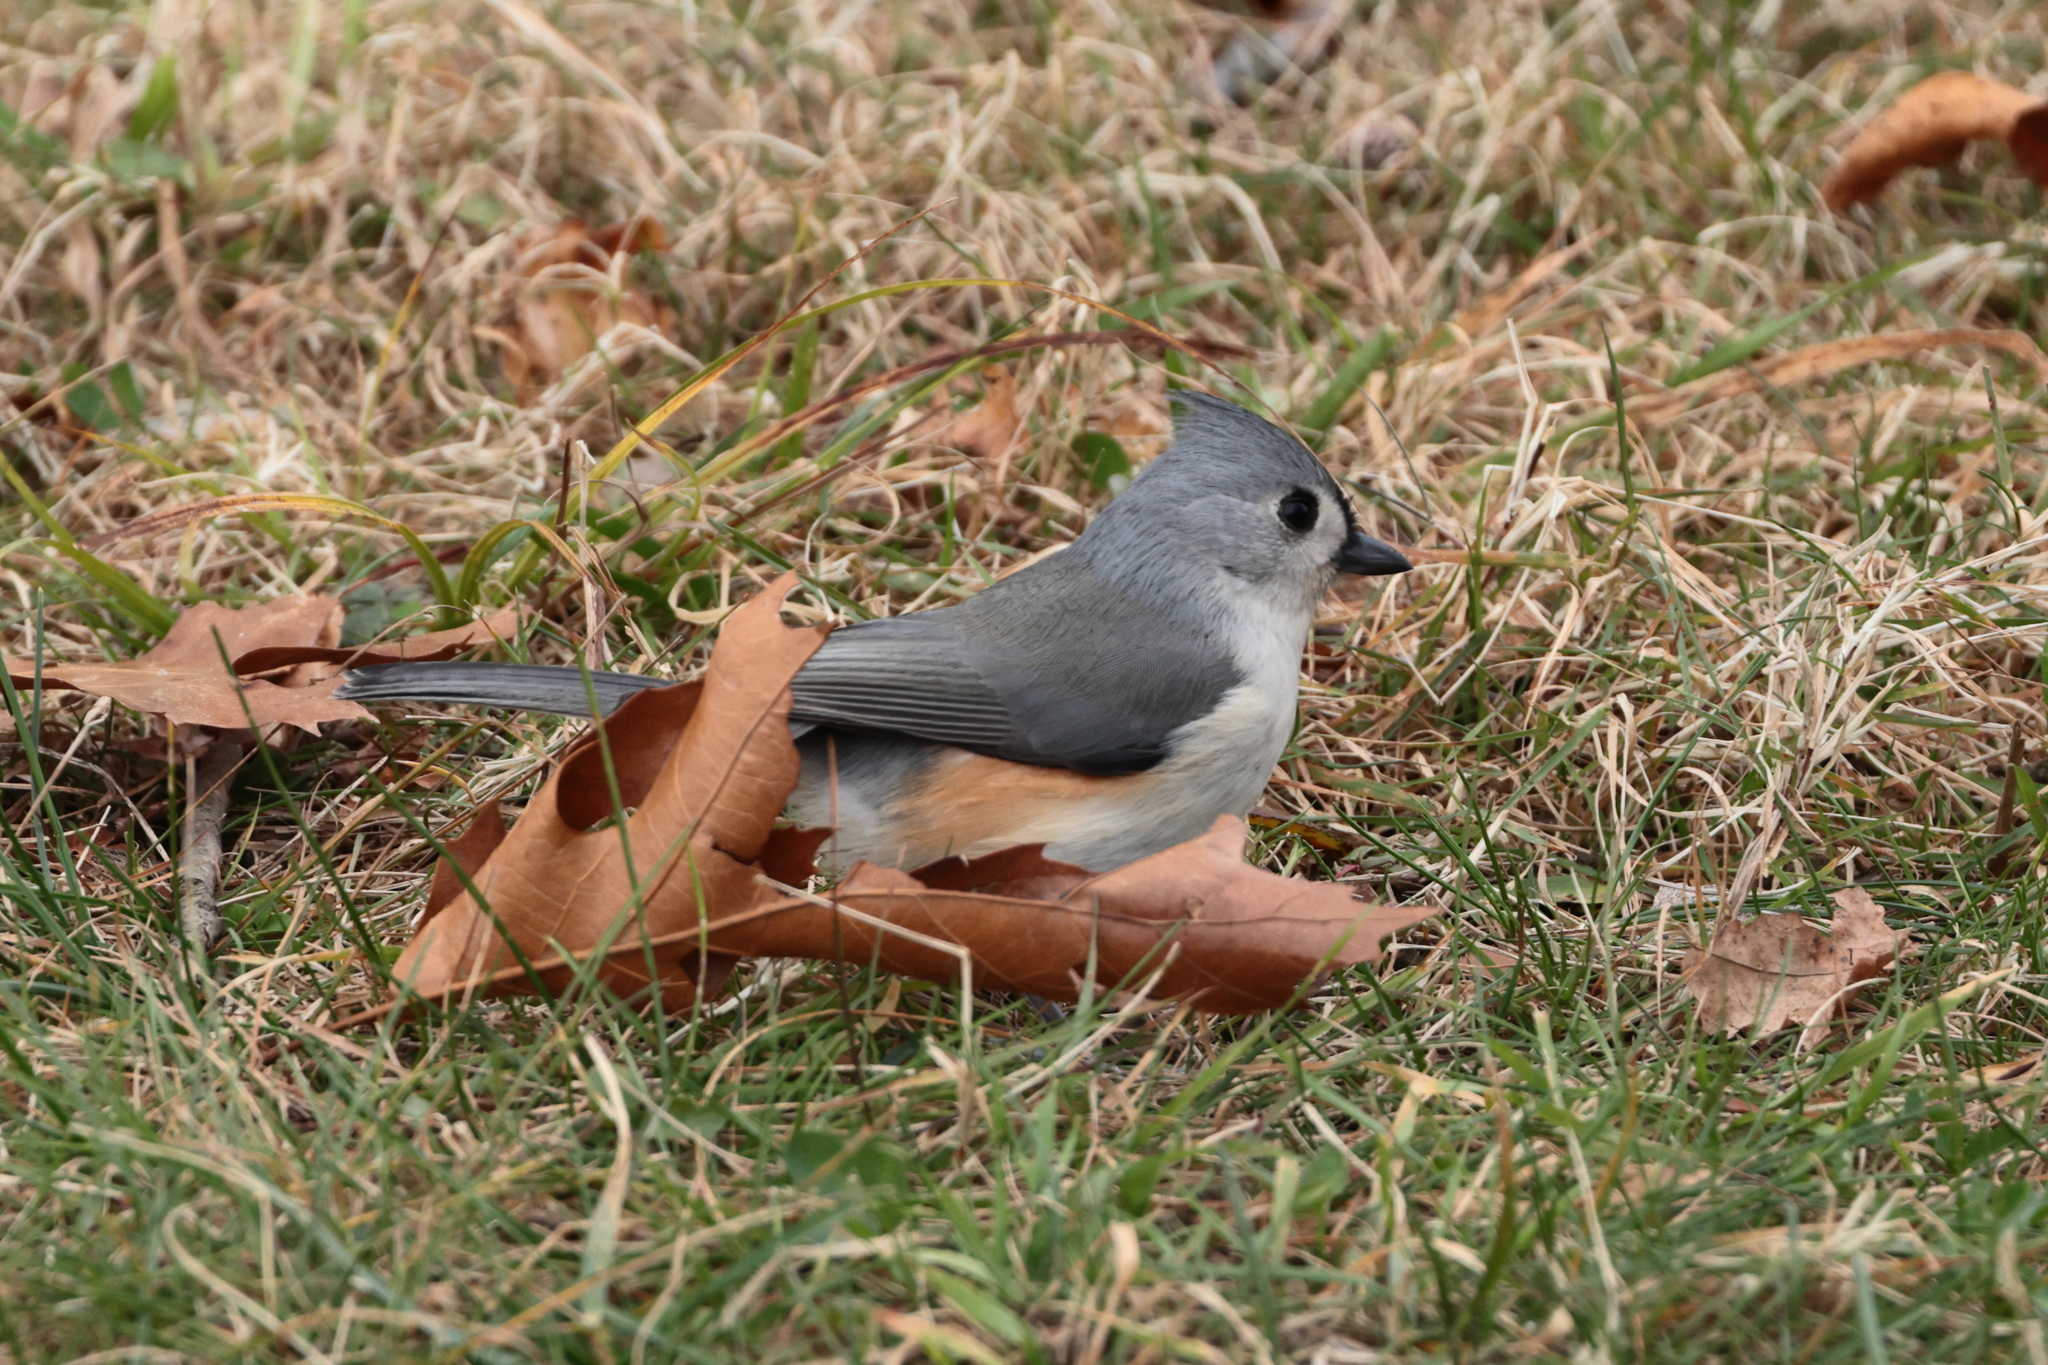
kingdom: Animalia
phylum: Chordata
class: Aves
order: Passeriformes
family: Paridae
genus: Baeolophus
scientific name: Baeolophus bicolor
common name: Tufted titmouse
